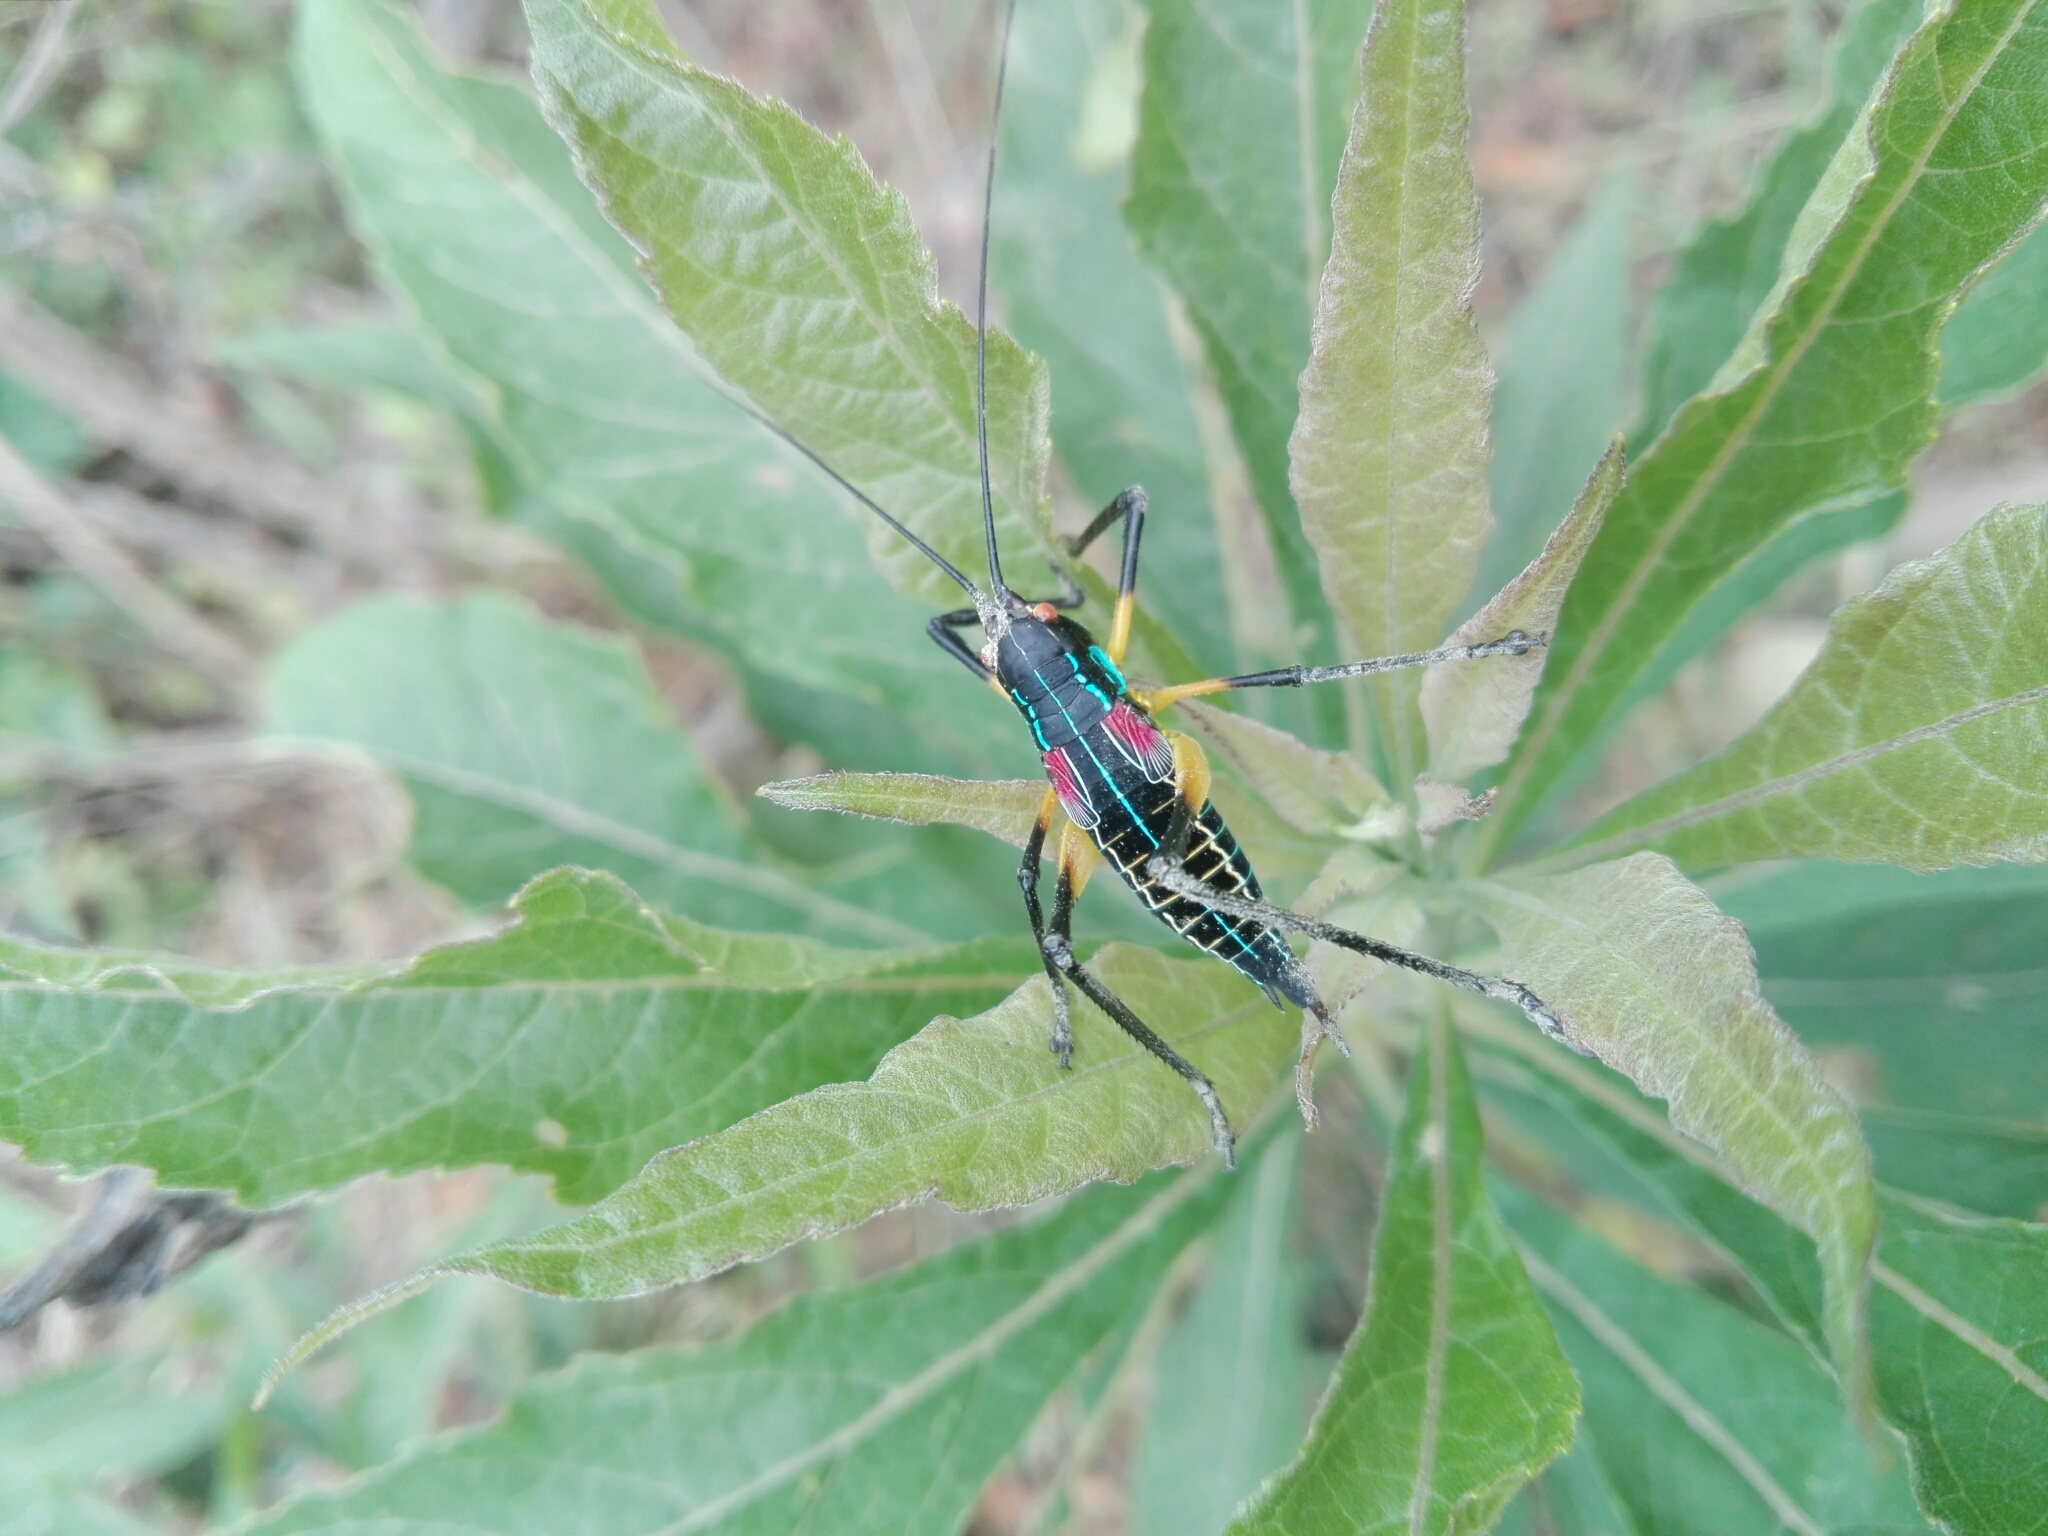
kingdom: Animalia
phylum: Arthropoda
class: Insecta
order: Orthoptera
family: Tettigoniidae
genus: Pterophylla
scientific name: Pterophylla beltrani
